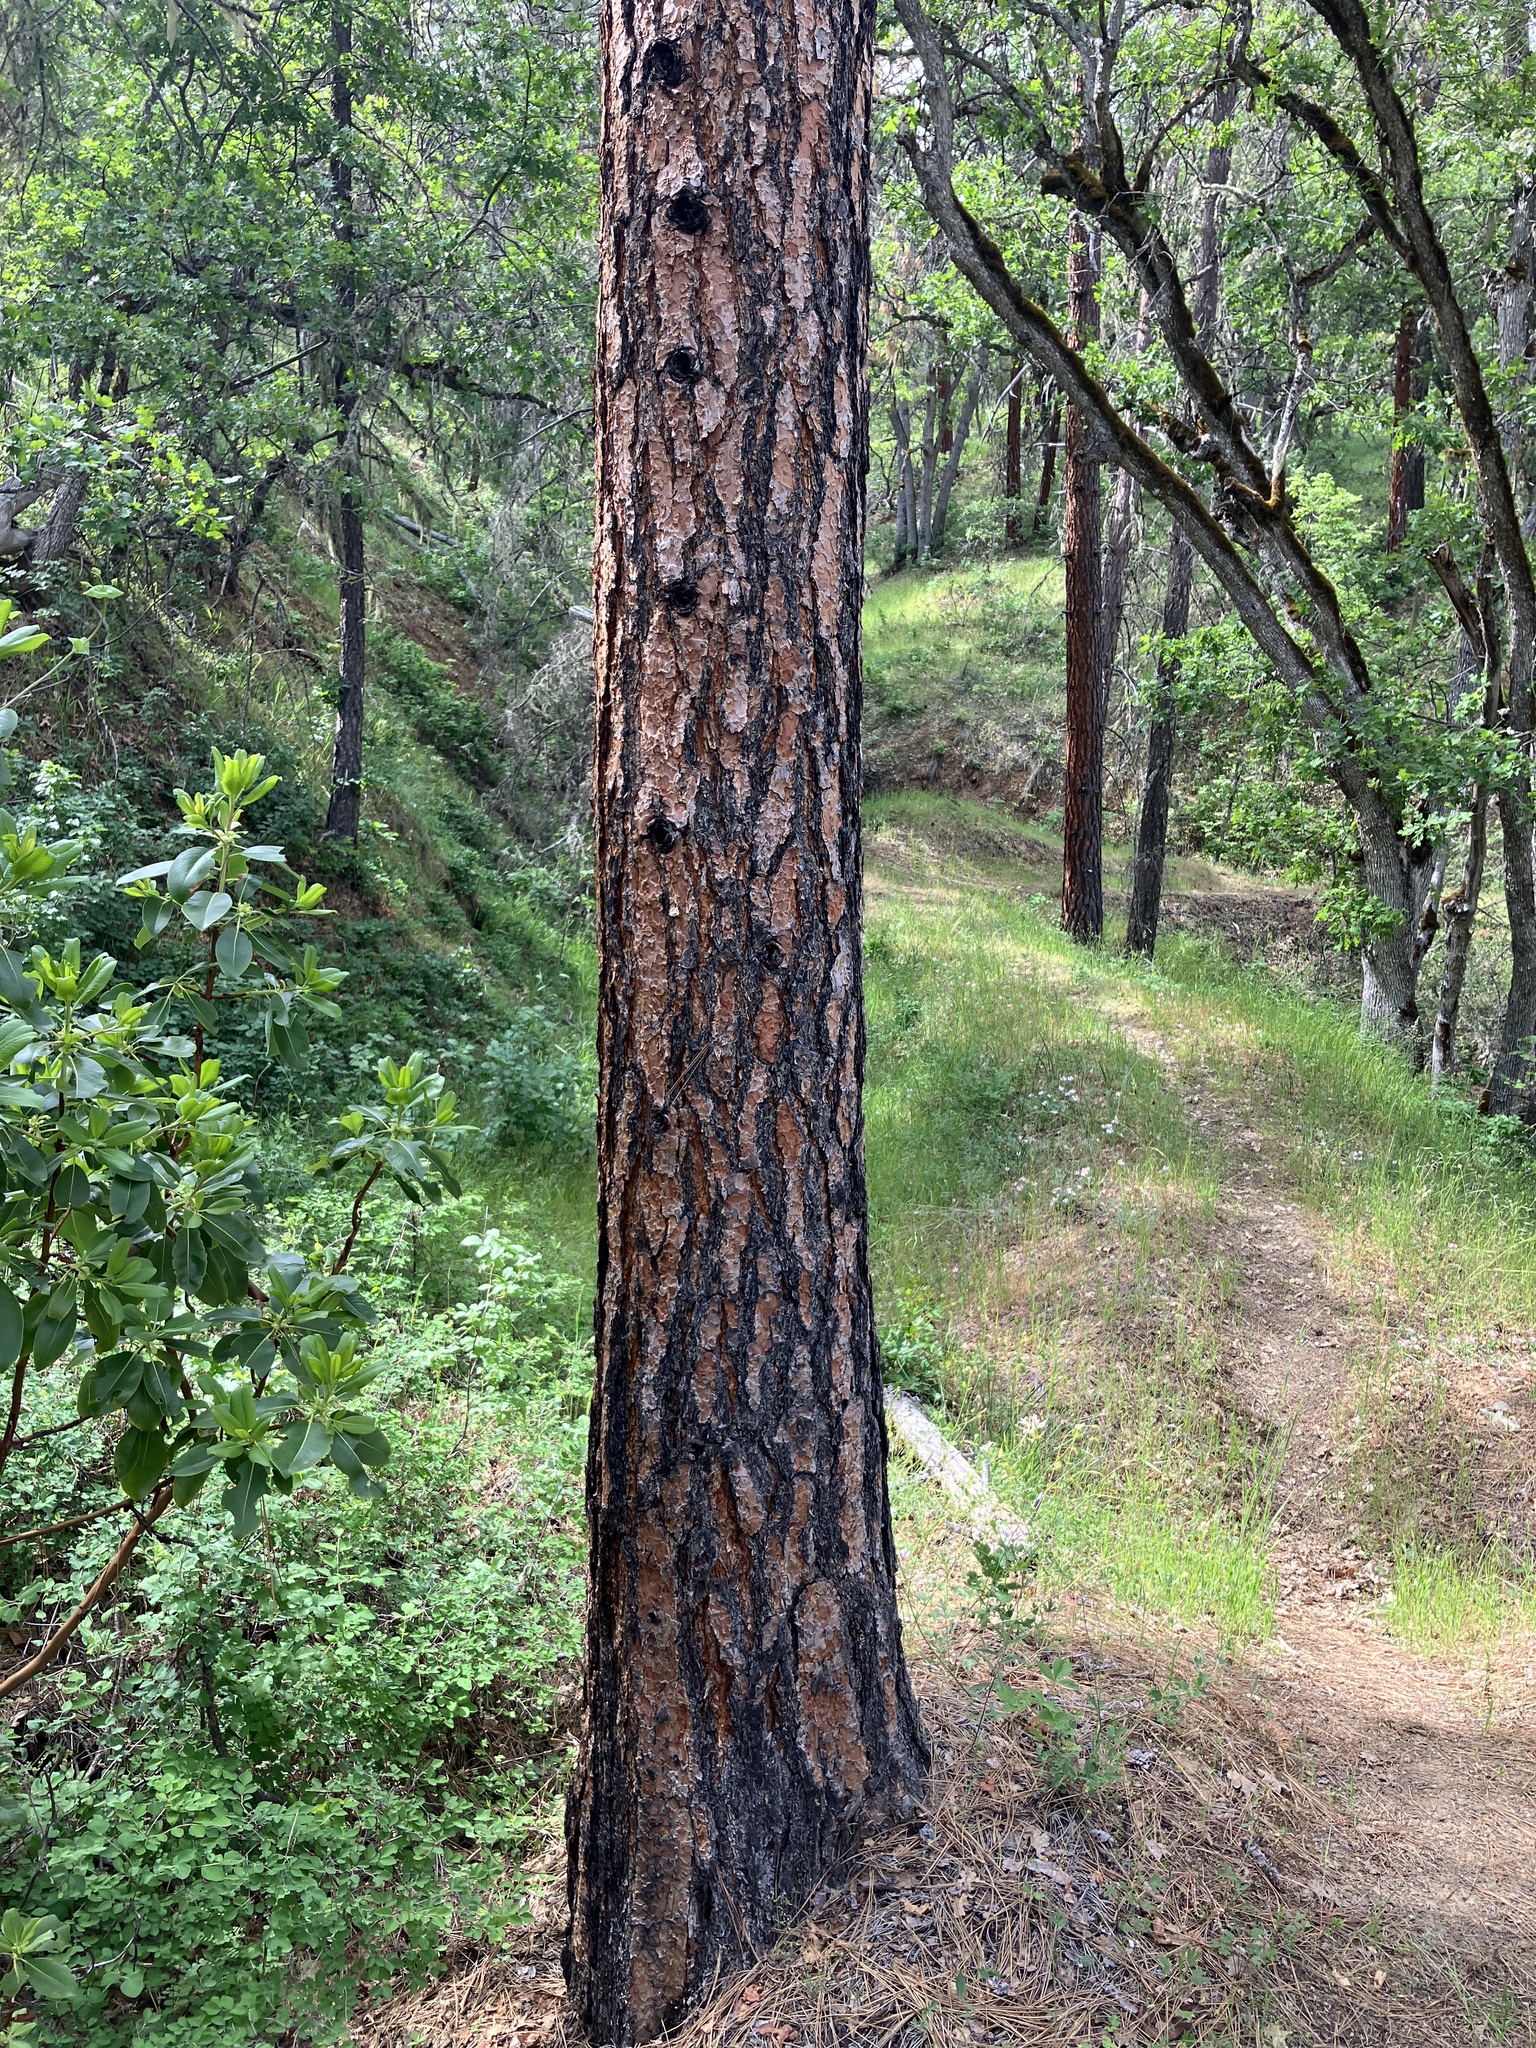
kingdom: Plantae
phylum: Tracheophyta
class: Pinopsida
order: Pinales
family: Pinaceae
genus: Pinus
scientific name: Pinus ponderosa
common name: Western yellow-pine
